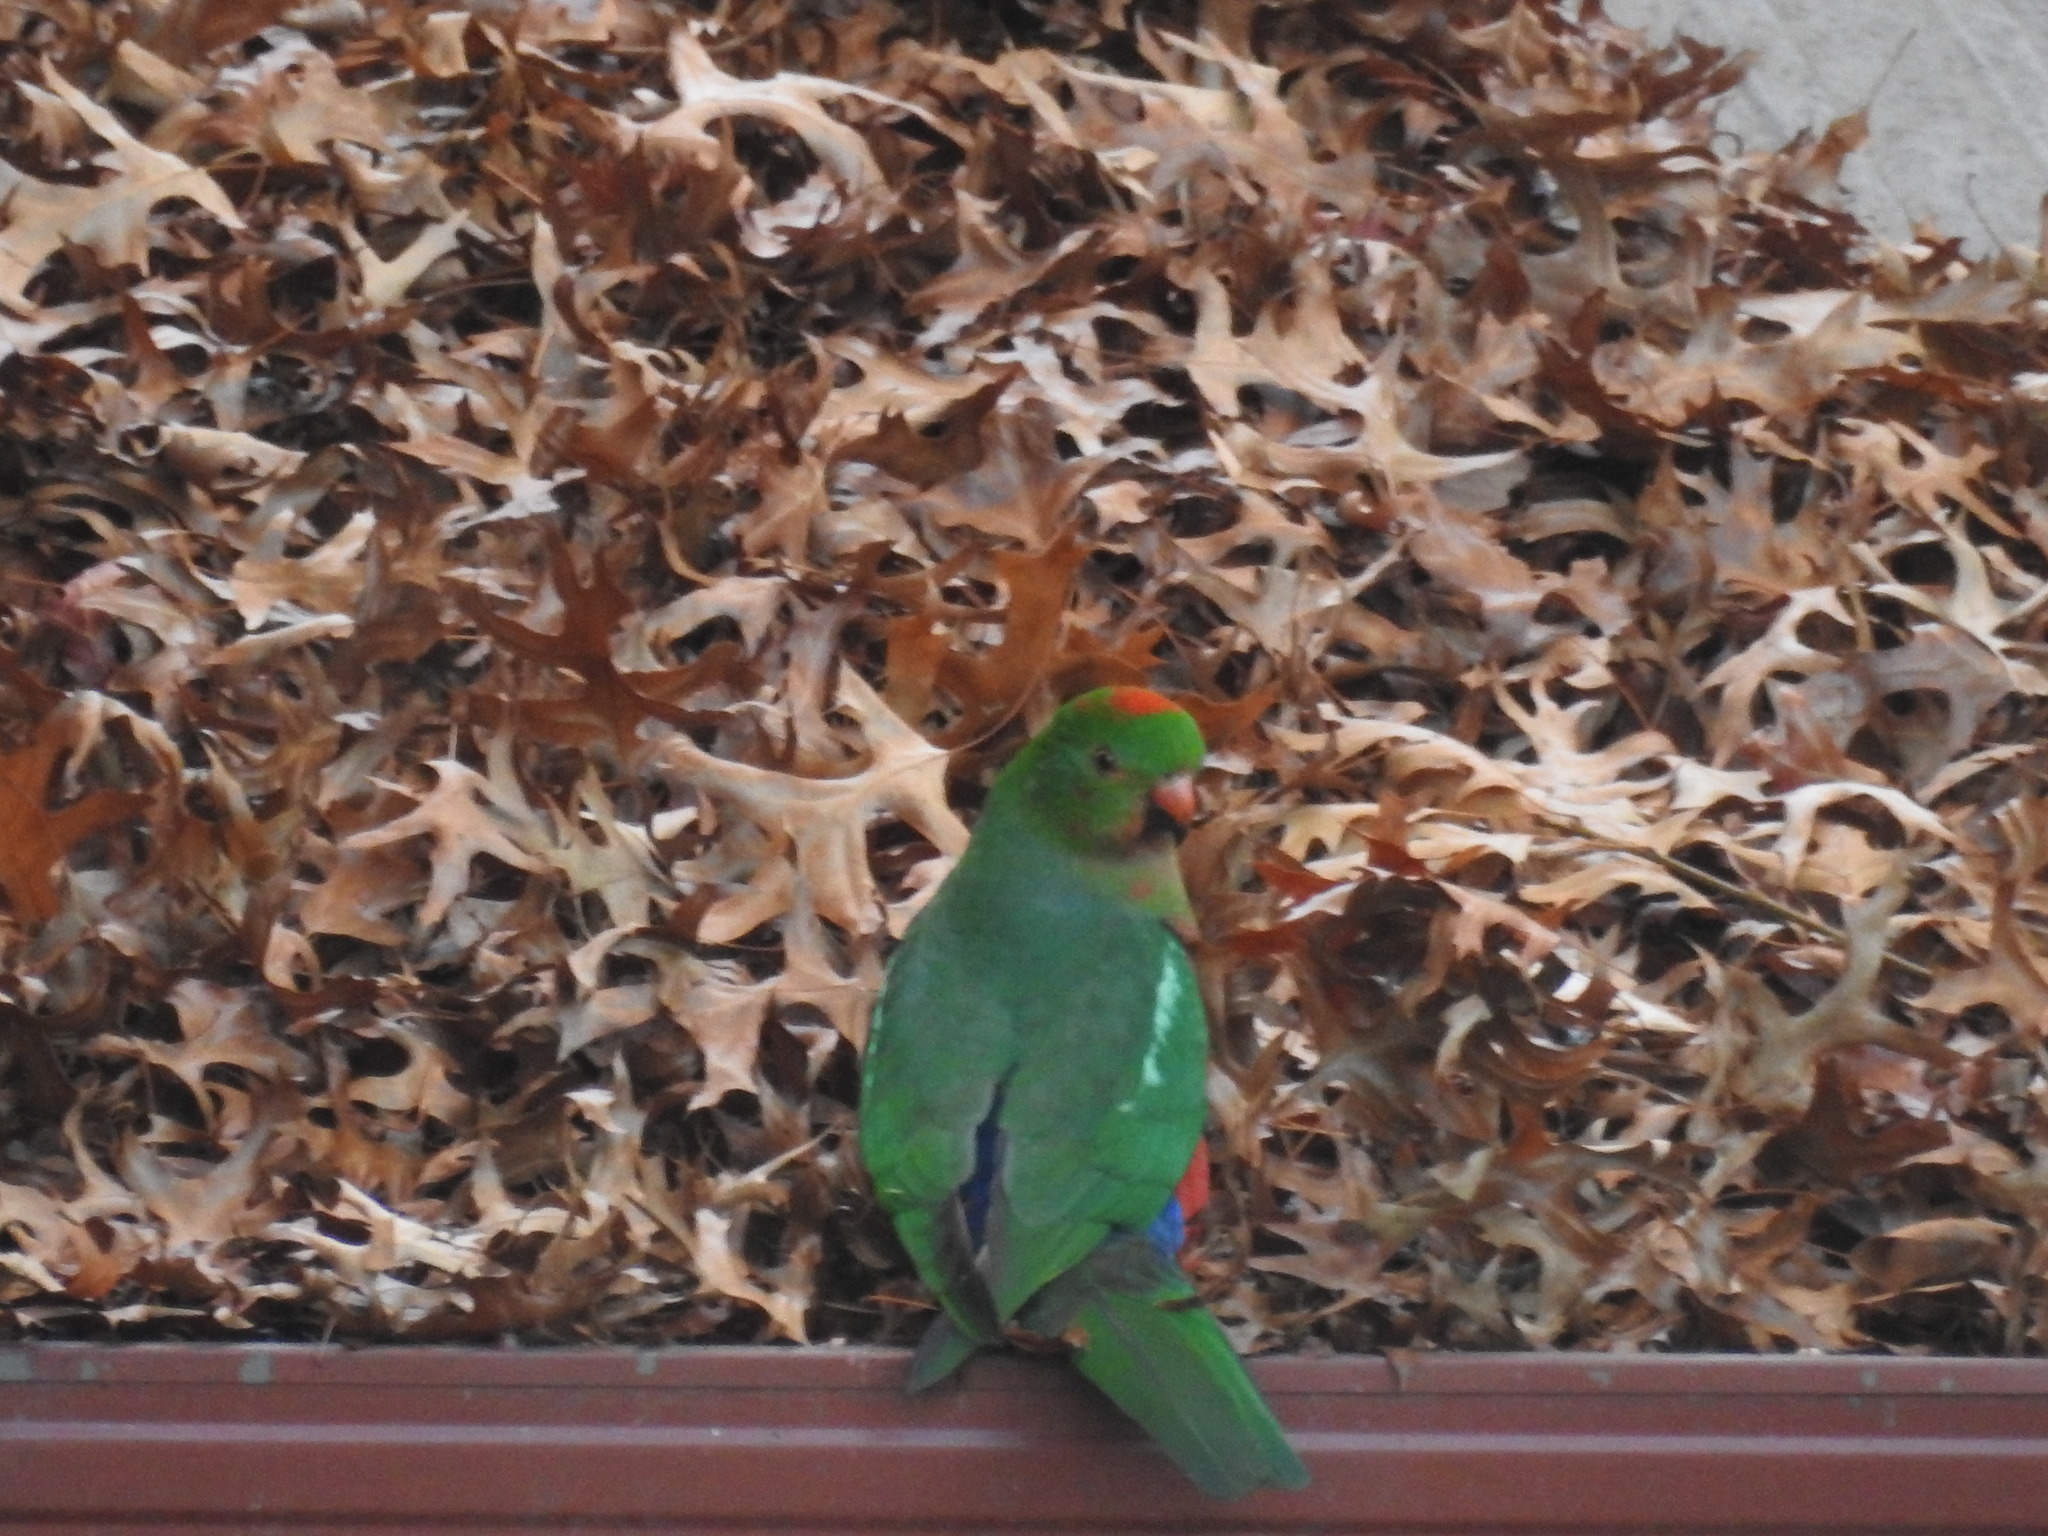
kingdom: Animalia
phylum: Chordata
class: Aves
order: Psittaciformes
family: Psittacidae
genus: Alisterus
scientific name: Alisterus scapularis
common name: Australian king parrot
